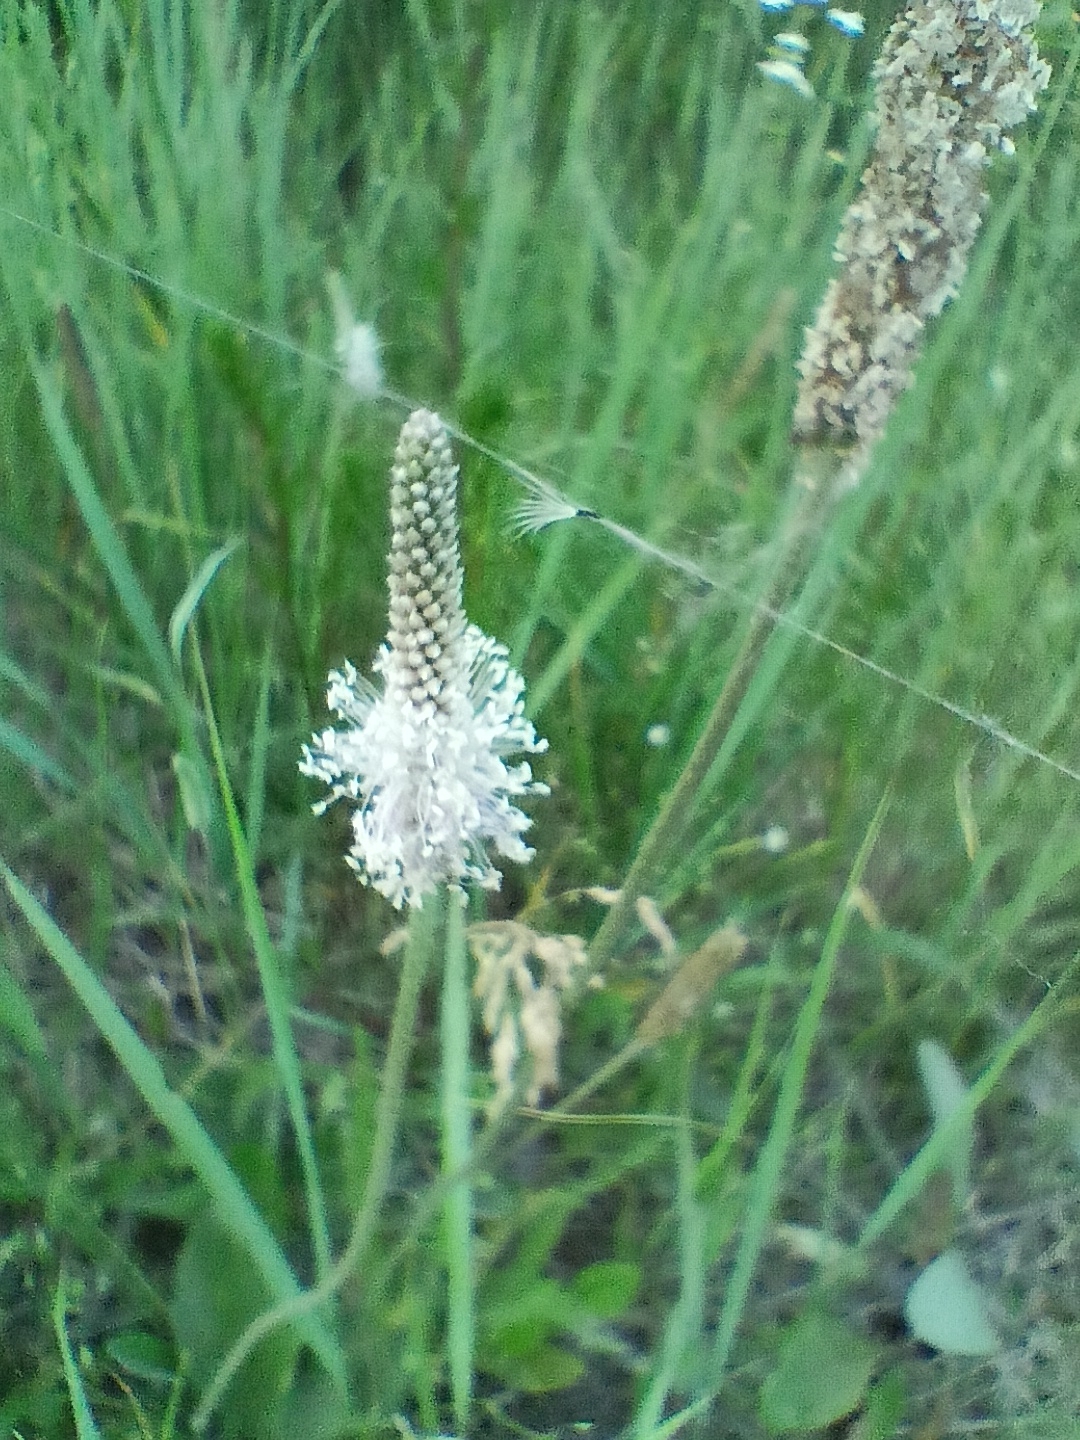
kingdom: Plantae
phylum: Tracheophyta
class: Magnoliopsida
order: Lamiales
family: Plantaginaceae
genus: Plantago
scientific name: Plantago media
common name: Hoary plantain
